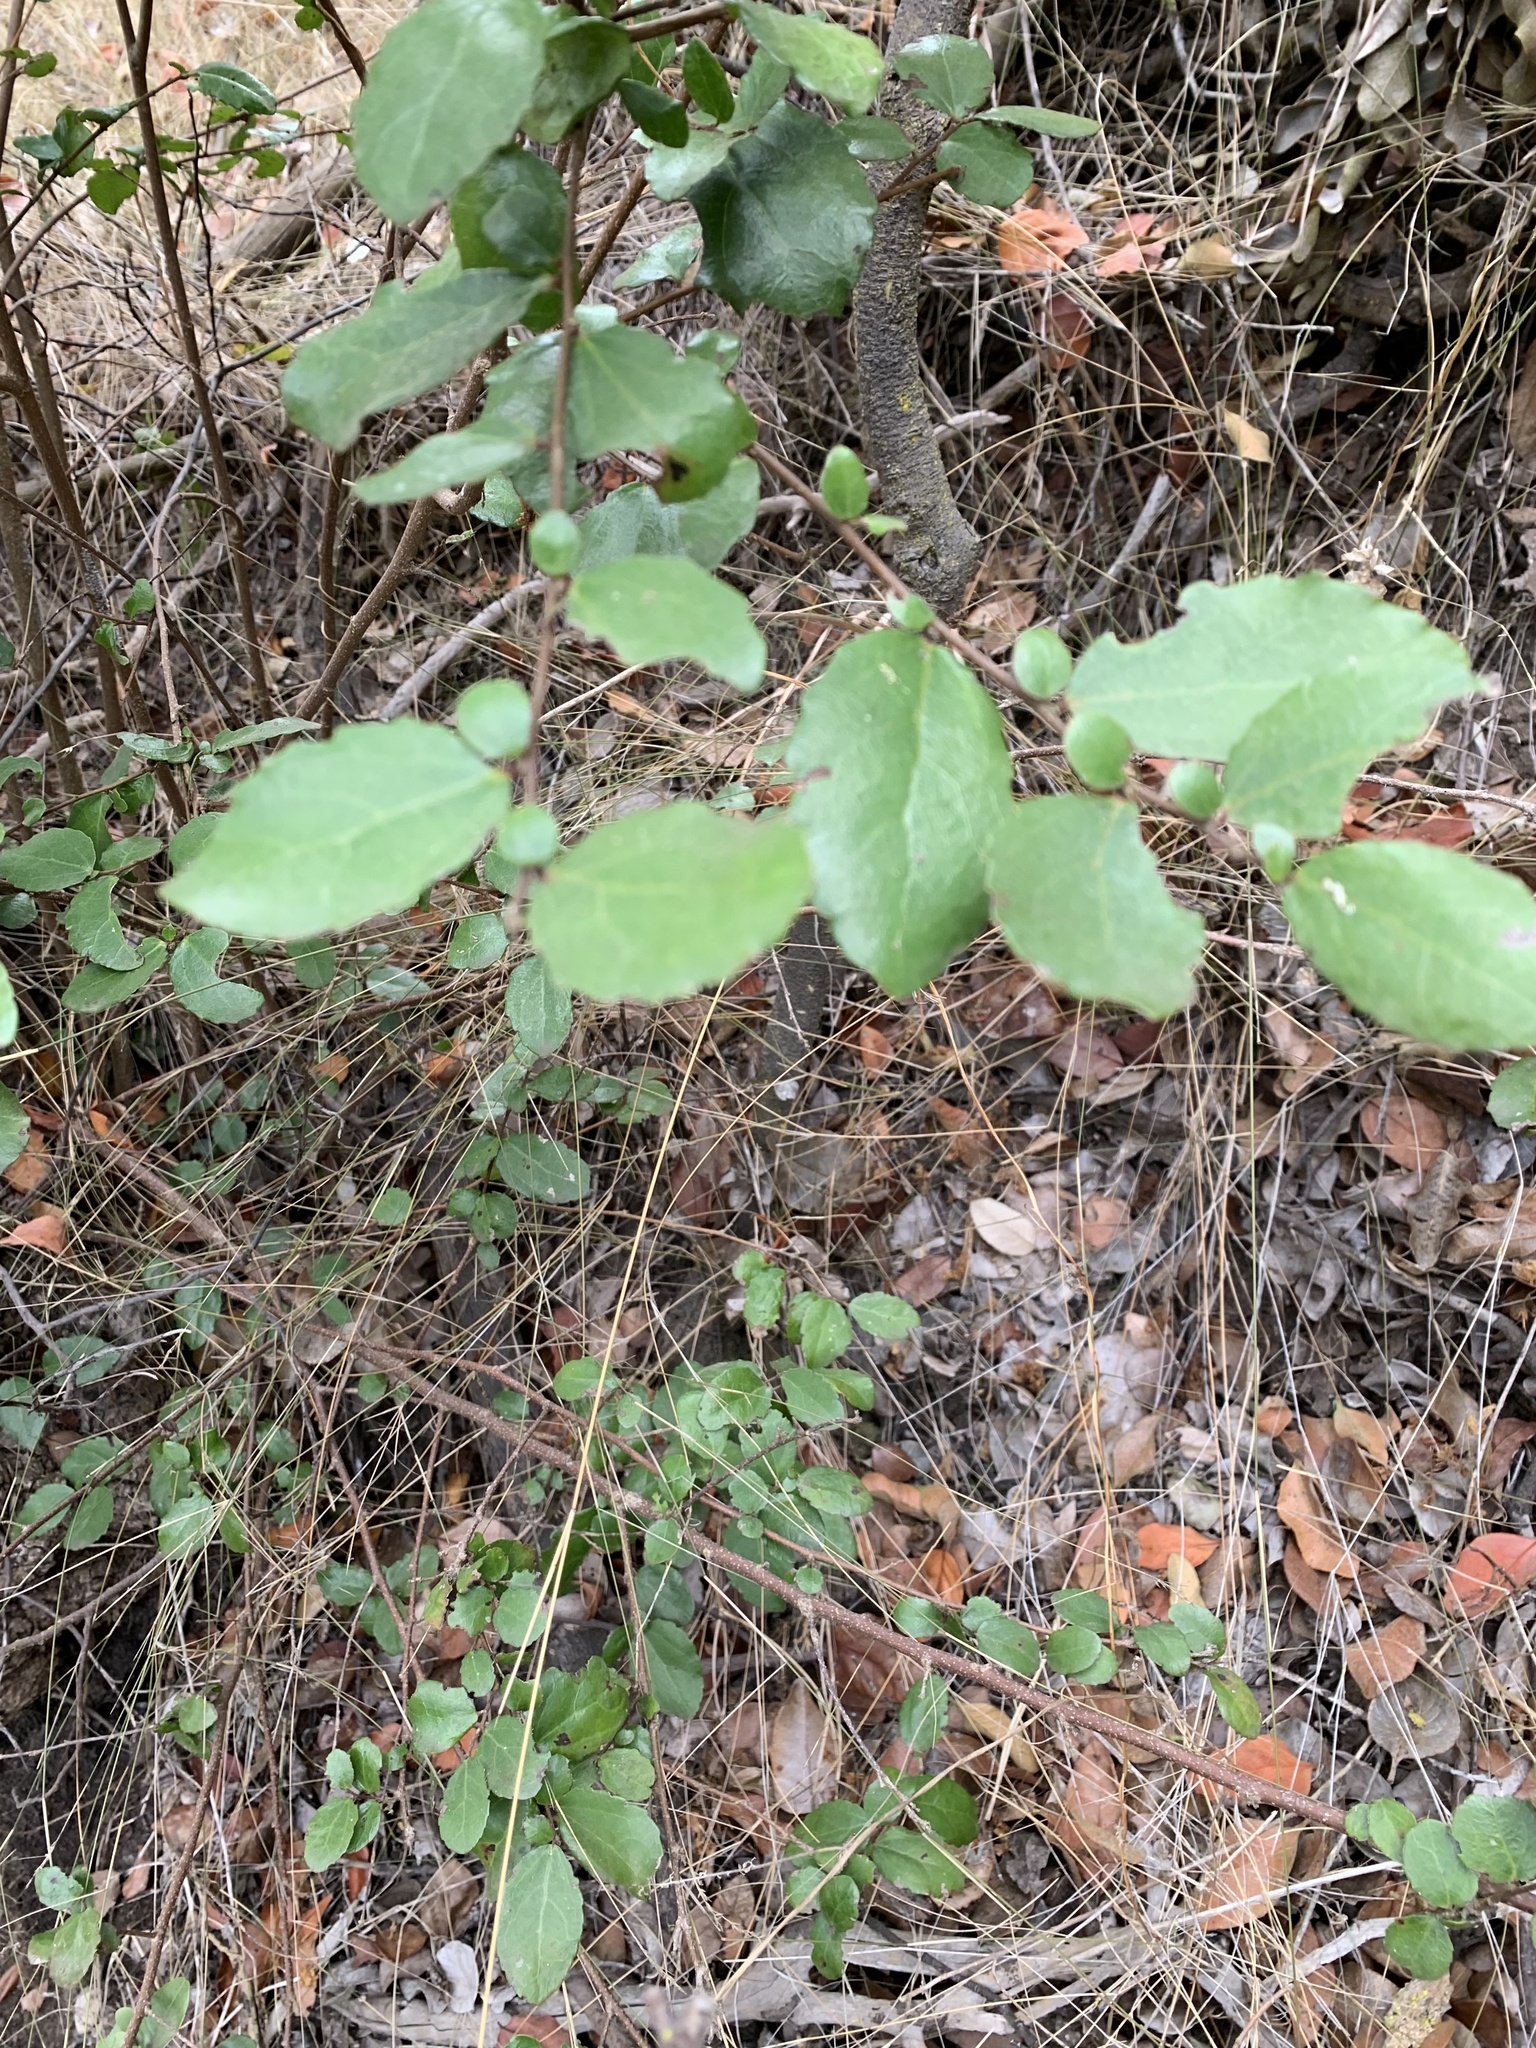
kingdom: Plantae
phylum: Tracheophyta
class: Magnoliopsida
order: Malpighiales
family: Salicaceae
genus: Azara
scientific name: Azara celastrina
